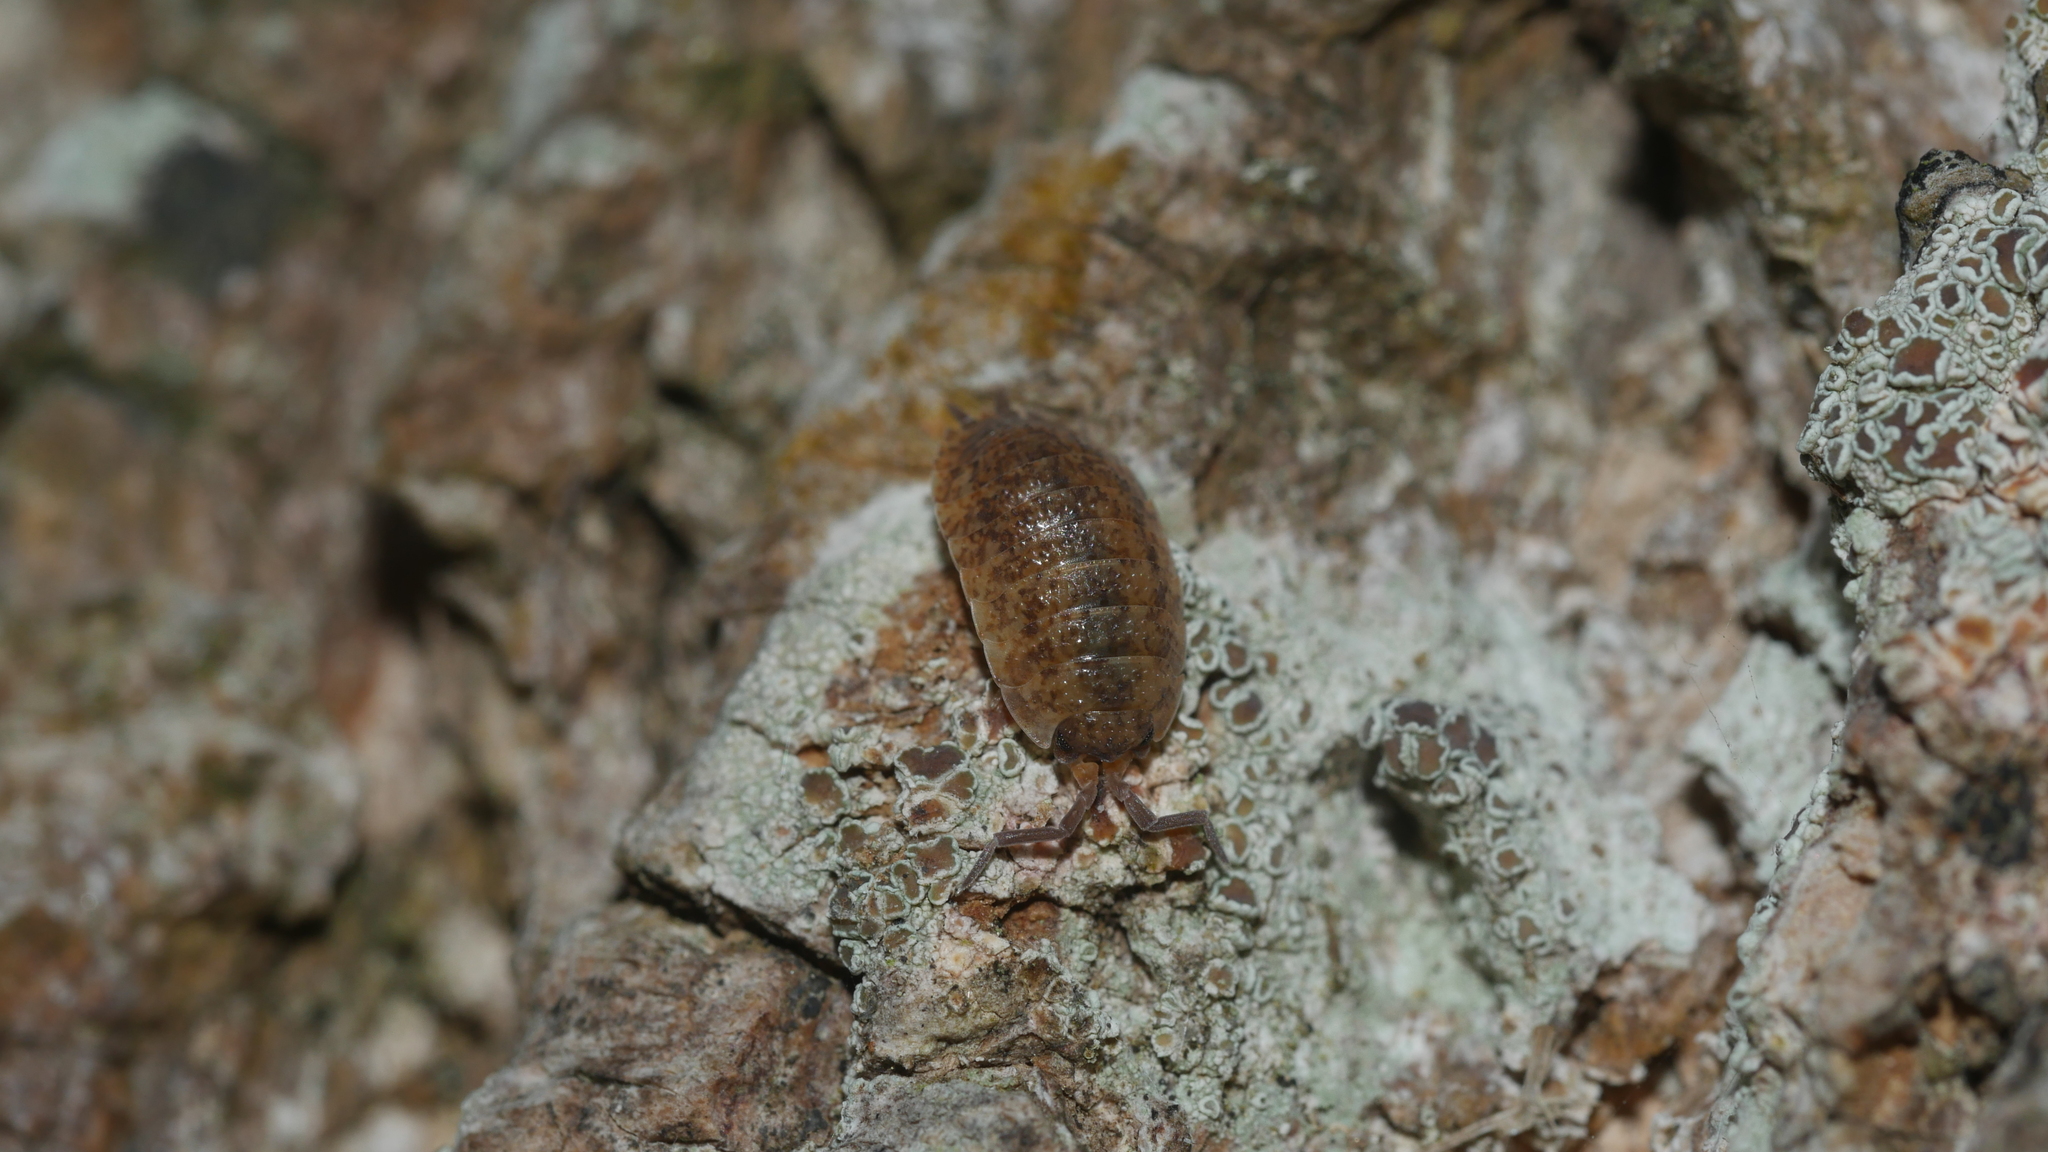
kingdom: Animalia
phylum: Arthropoda
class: Malacostraca
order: Isopoda
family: Porcellionidae
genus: Porcellio
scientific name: Porcellio scaber
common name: Common rough woodlouse
